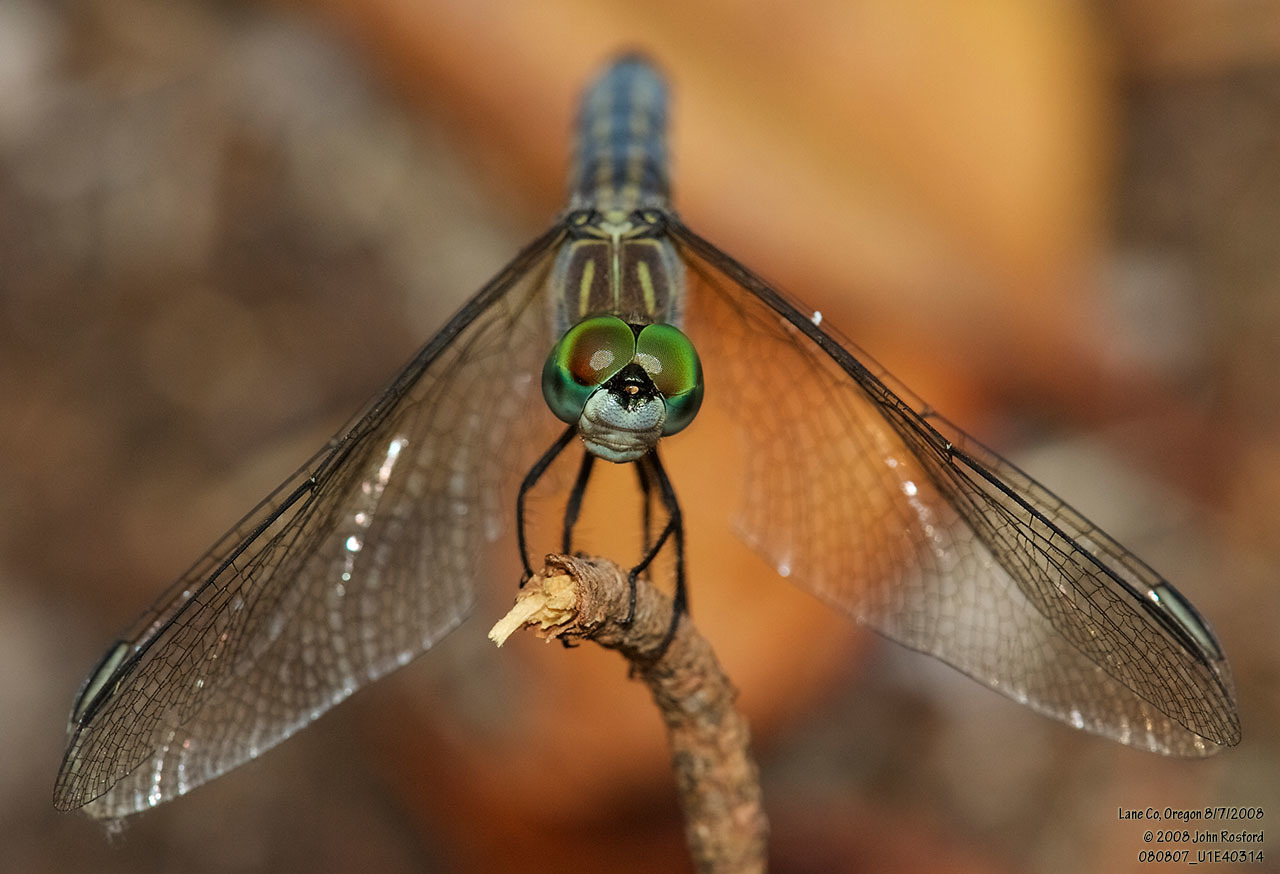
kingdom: Animalia
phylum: Arthropoda
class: Insecta
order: Odonata
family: Libellulidae
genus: Pachydiplax
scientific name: Pachydiplax longipennis
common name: Blue dasher
